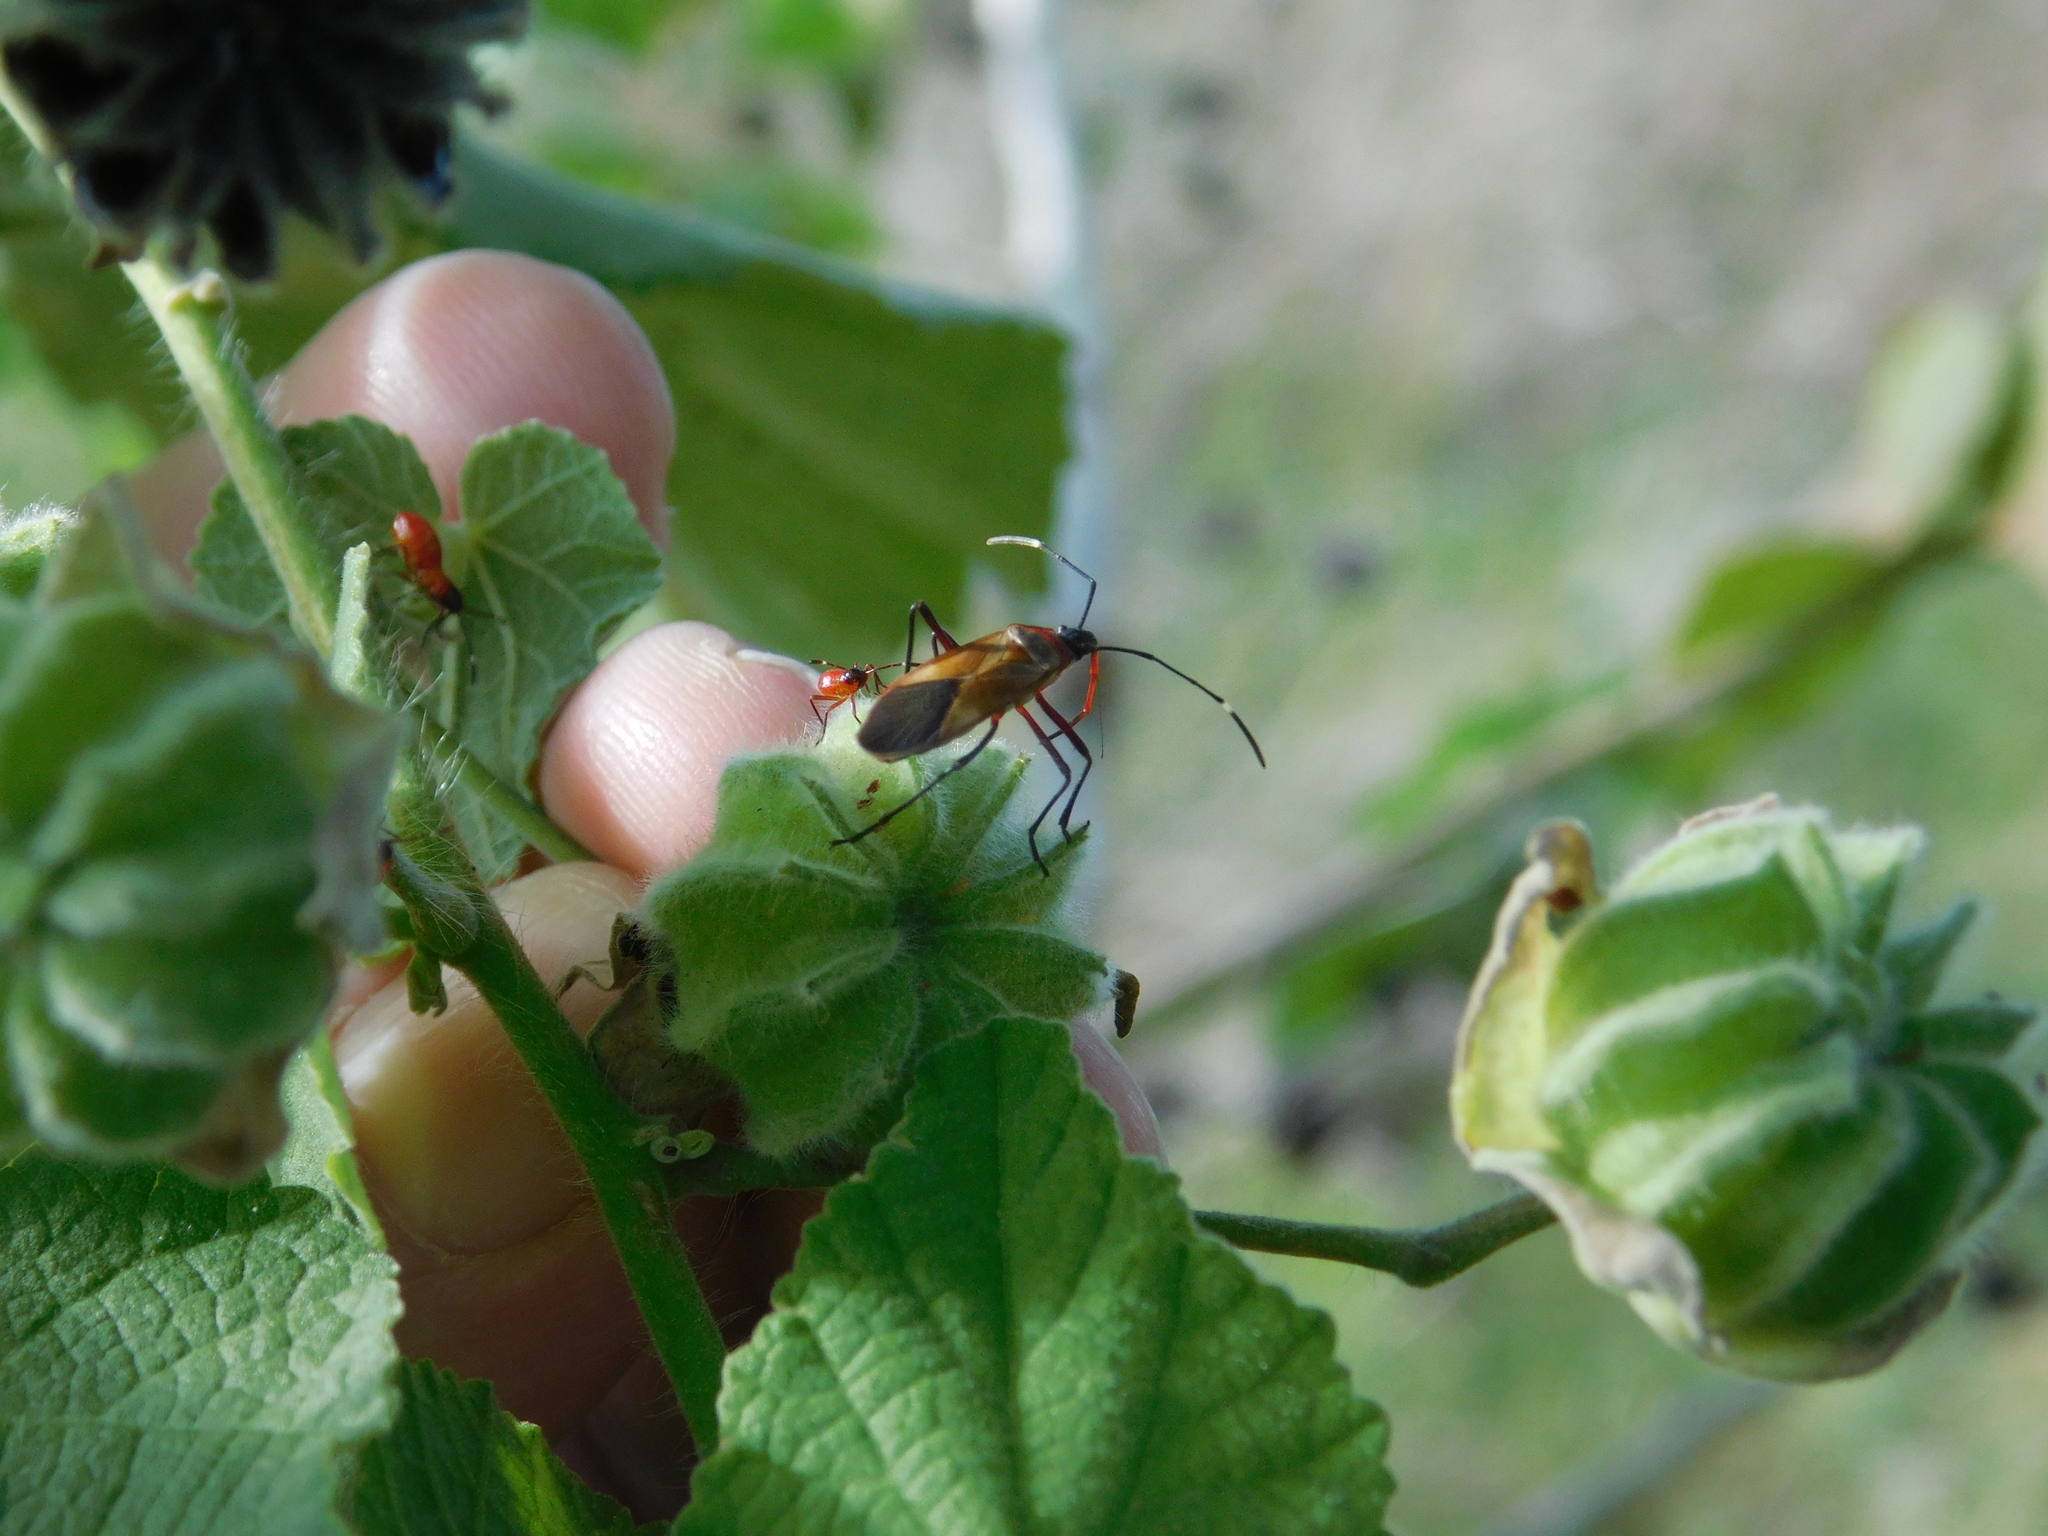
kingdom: Animalia
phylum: Arthropoda
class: Insecta
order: Hemiptera
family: Pyrrhocoridae
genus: Dysdercus
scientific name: Dysdercus
